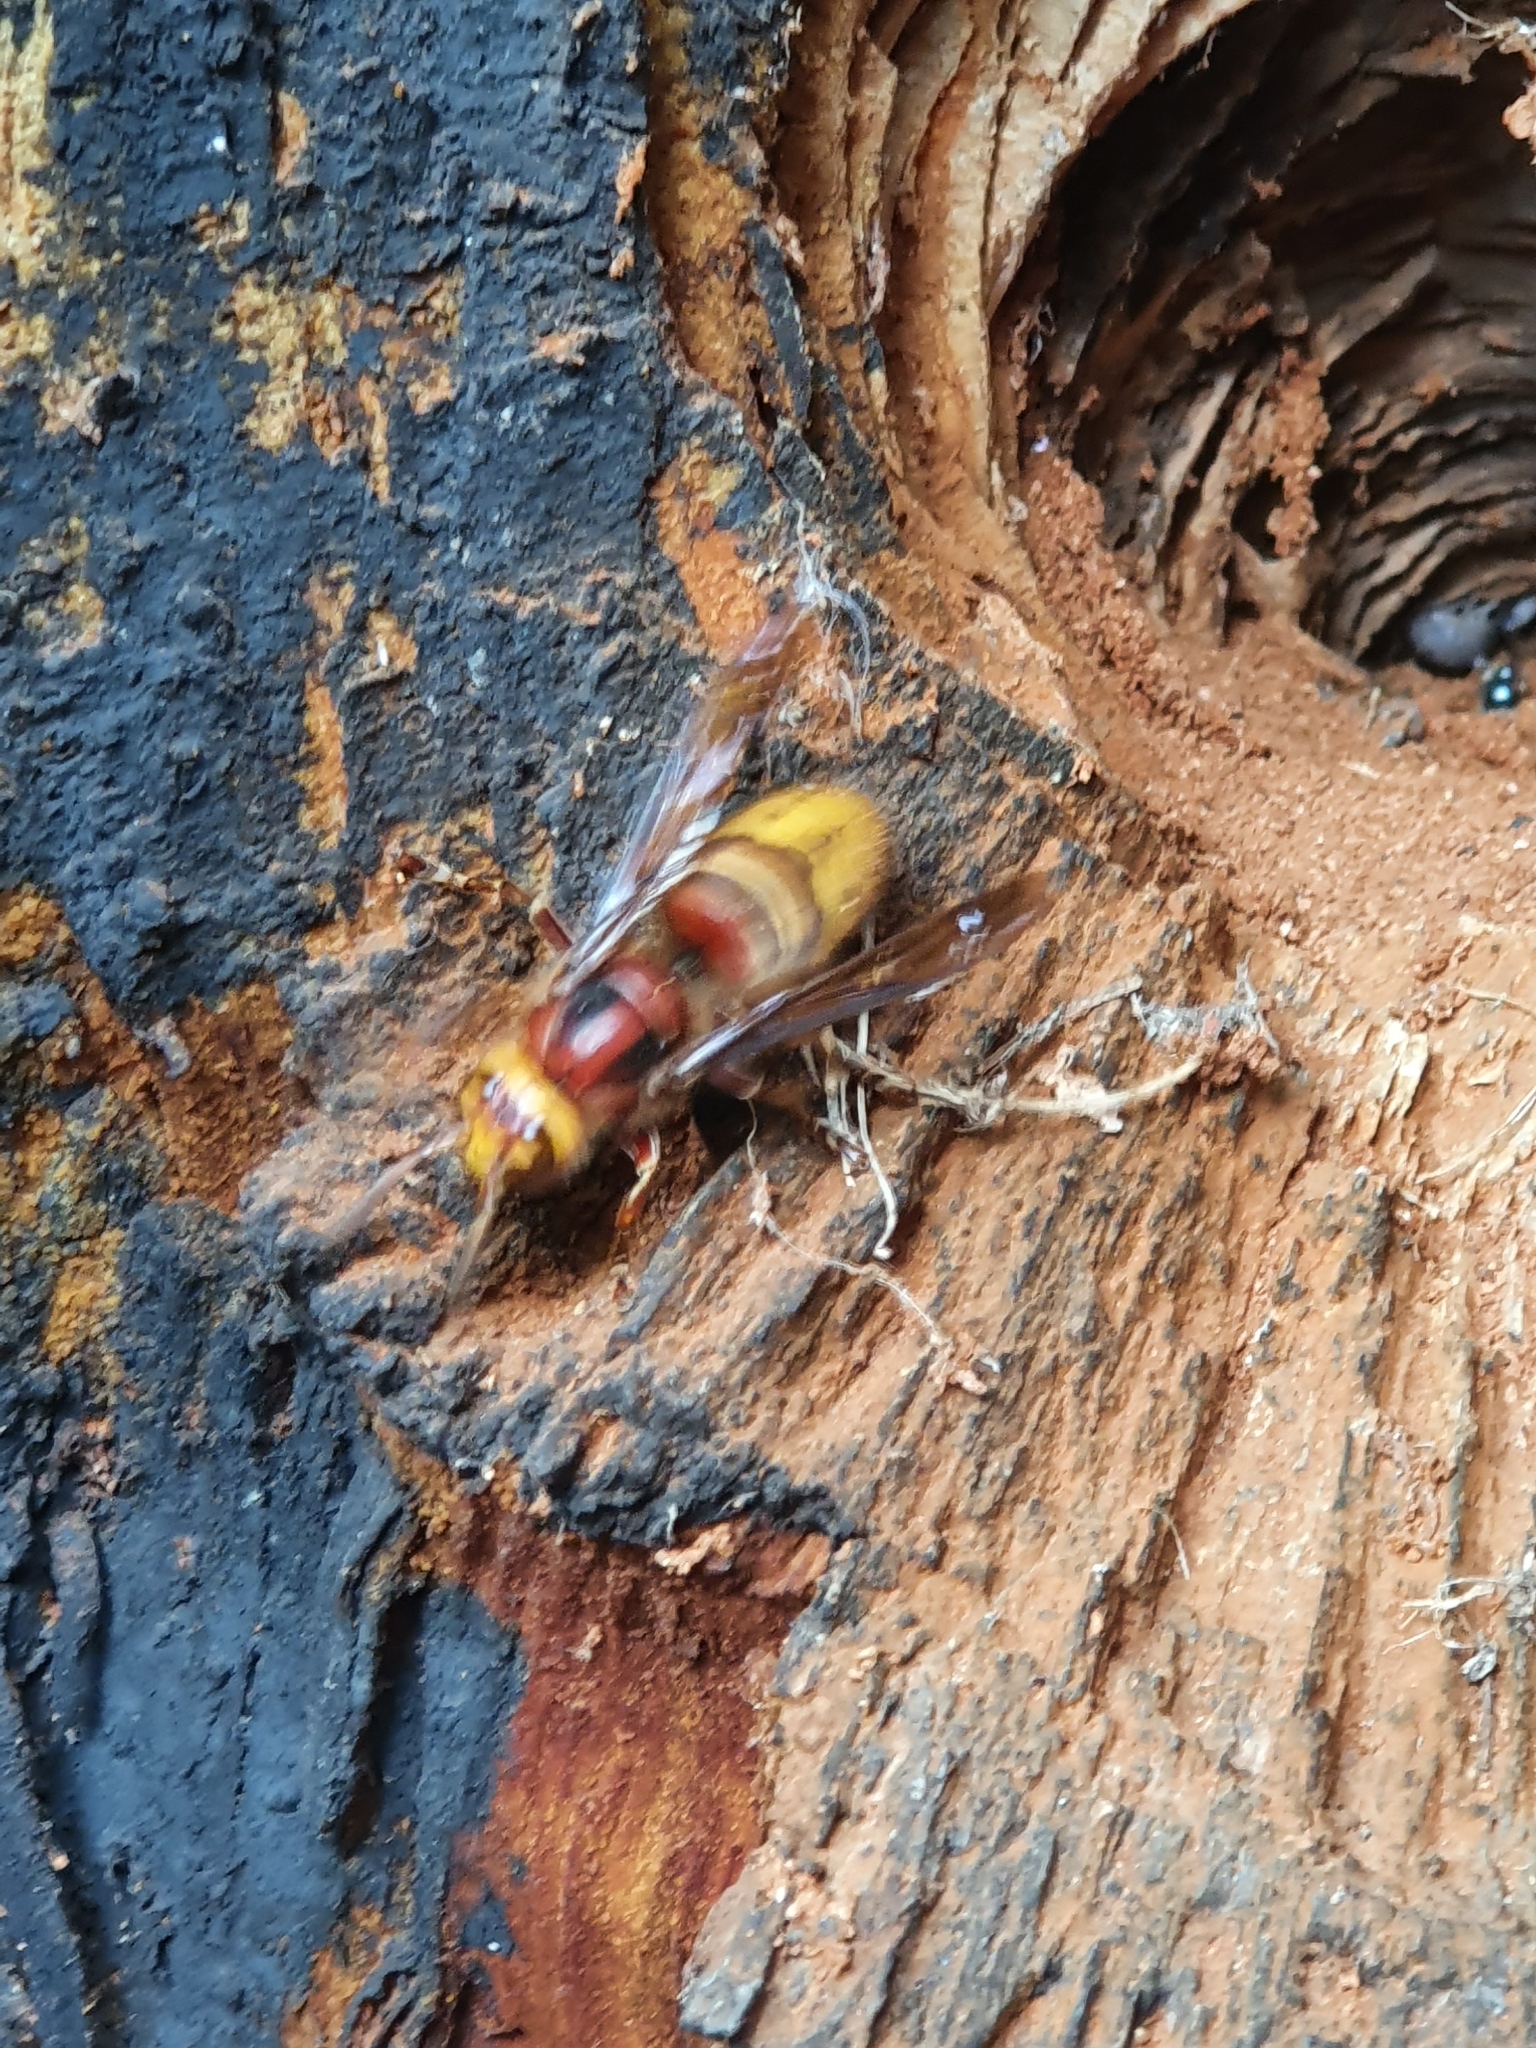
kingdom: Animalia
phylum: Arthropoda
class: Insecta
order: Hymenoptera
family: Vespidae
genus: Vespa
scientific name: Vespa crabro
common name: Hornet
